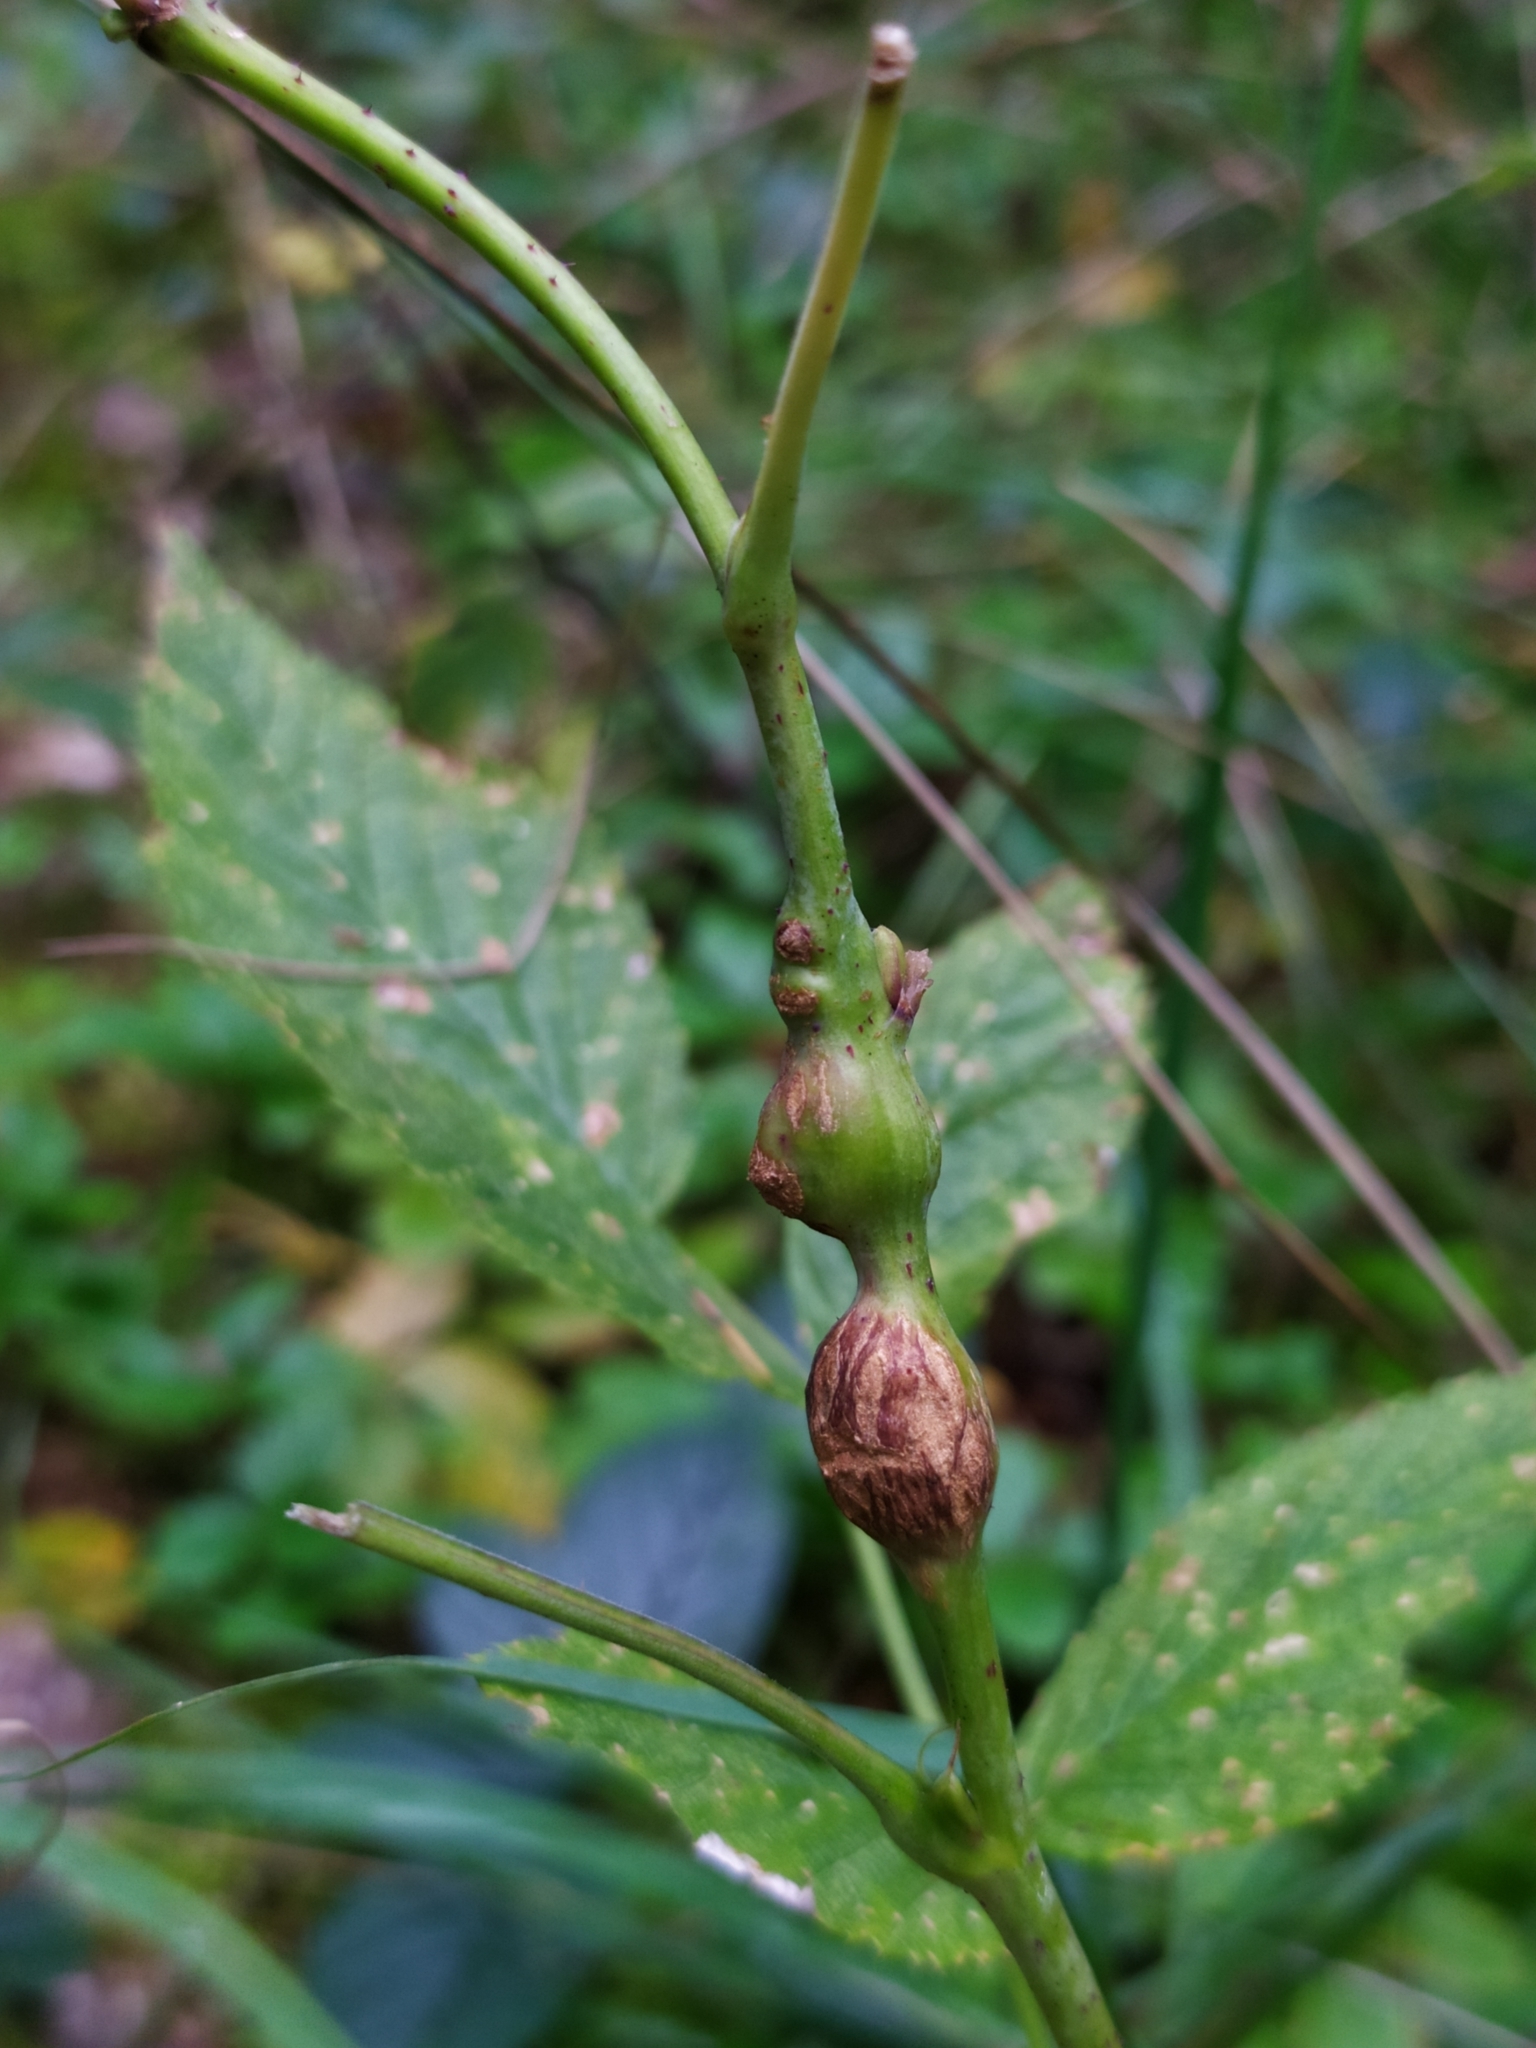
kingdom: Animalia
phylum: Arthropoda
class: Insecta
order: Diptera
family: Cecidomyiidae
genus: Lasioptera
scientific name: Lasioptera rubi
